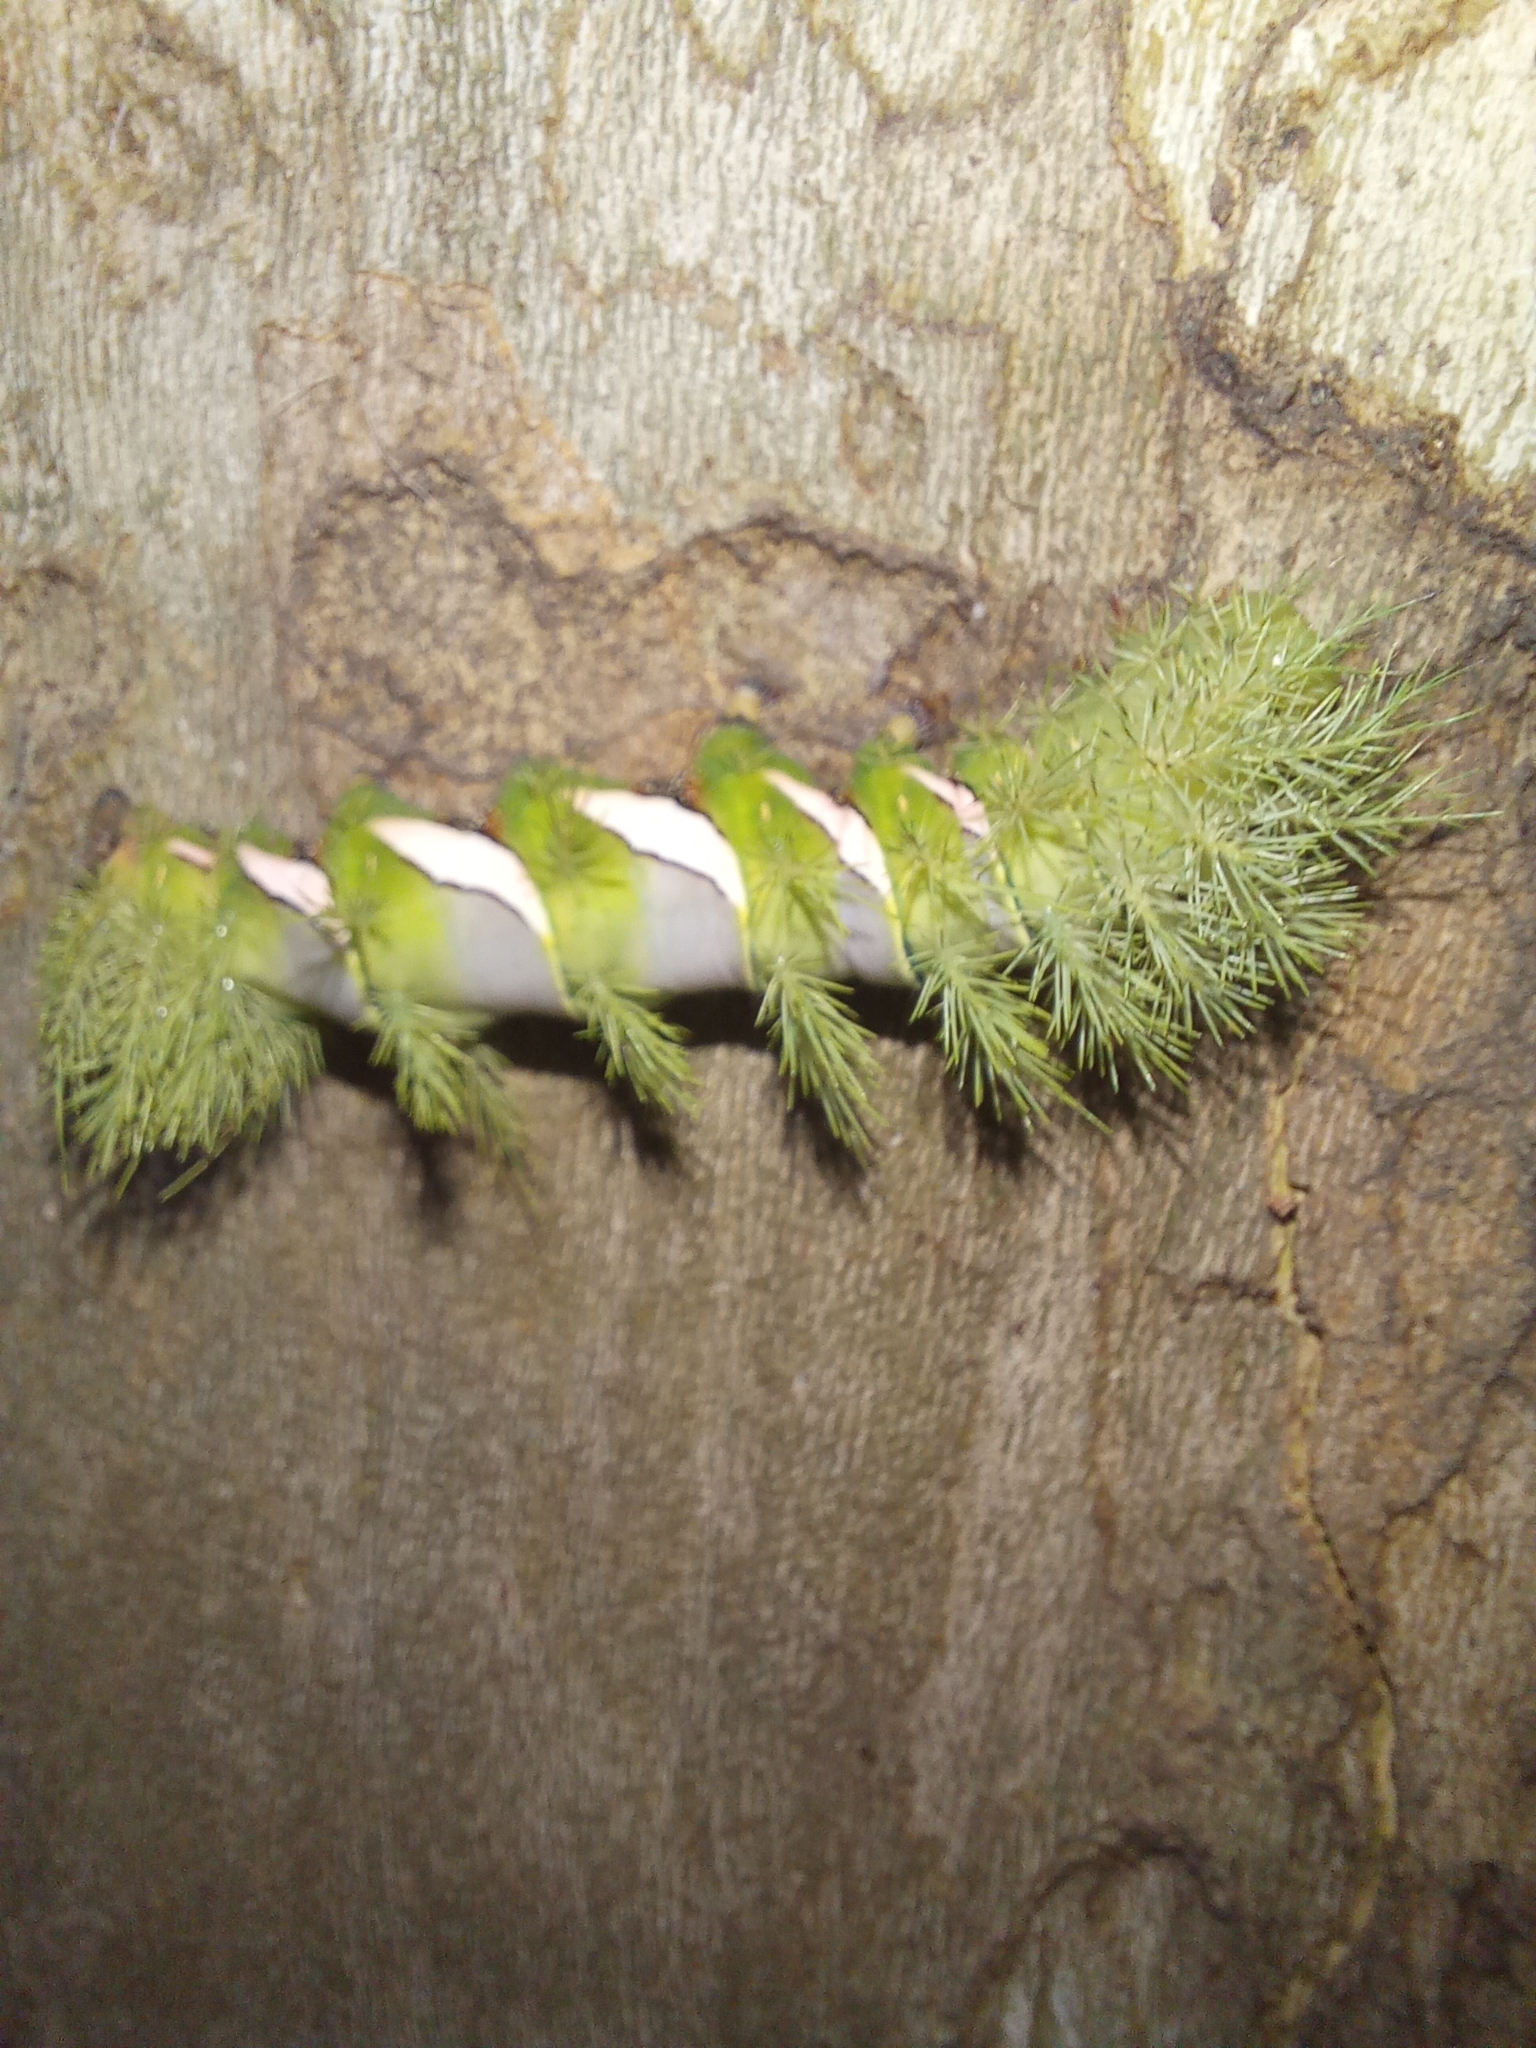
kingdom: Animalia
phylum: Arthropoda
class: Insecta
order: Lepidoptera
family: Saturniidae
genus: Automeris
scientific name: Automeris naranja
